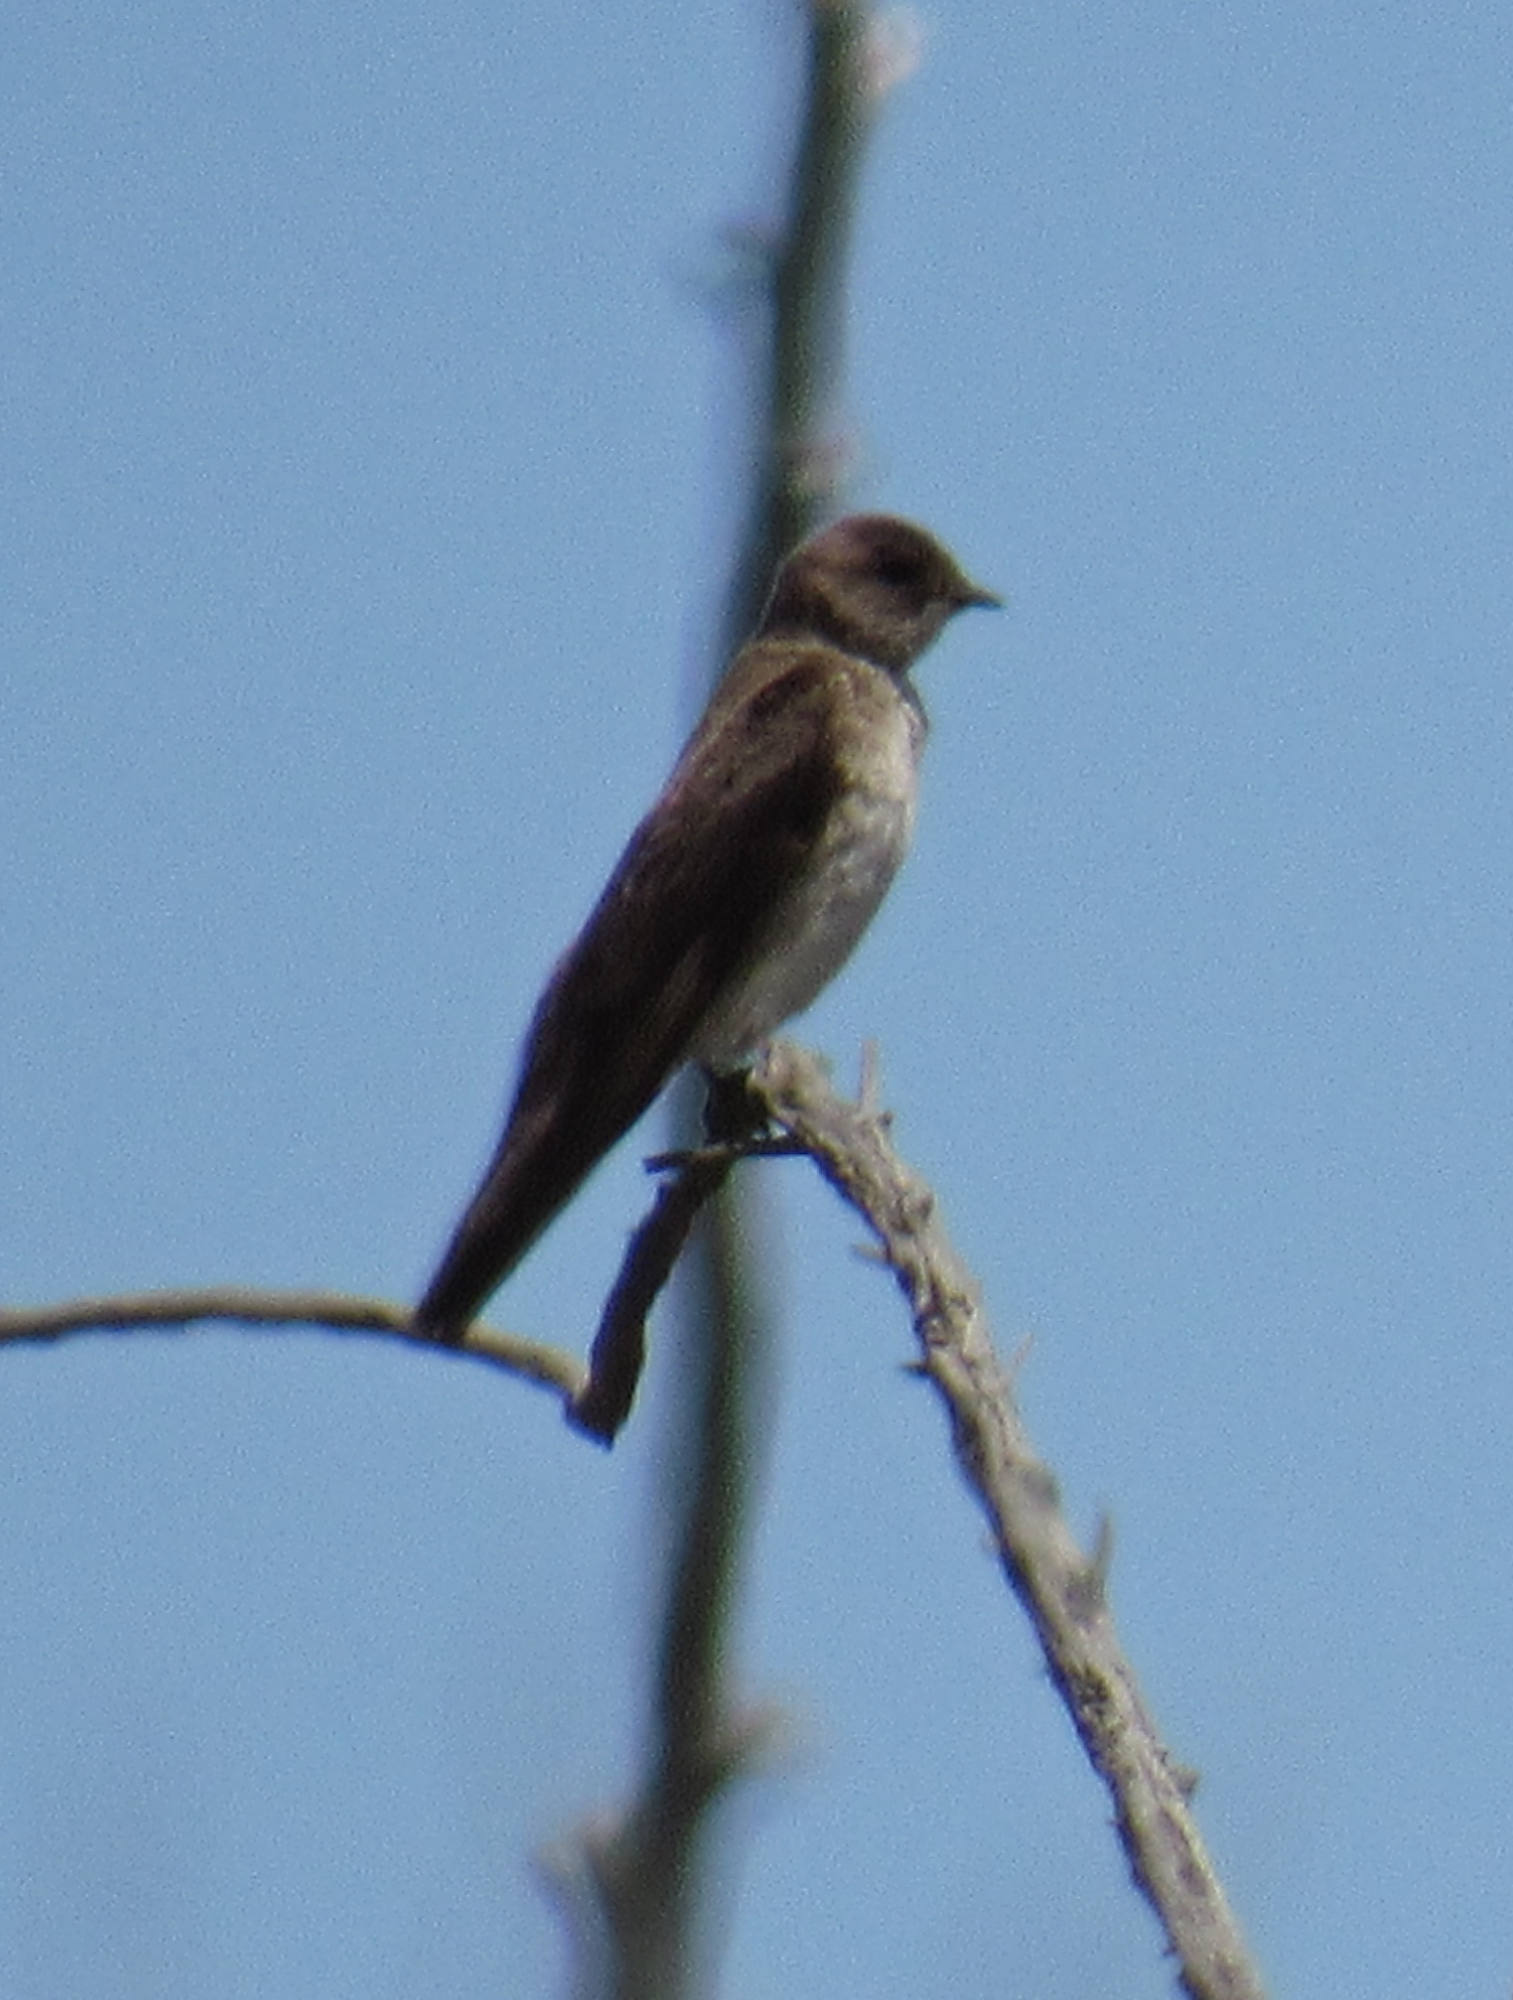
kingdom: Animalia
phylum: Chordata
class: Aves
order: Passeriformes
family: Hirundinidae
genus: Stelgidopteryx
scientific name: Stelgidopteryx serripennis
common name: Northern rough-winged swallow
